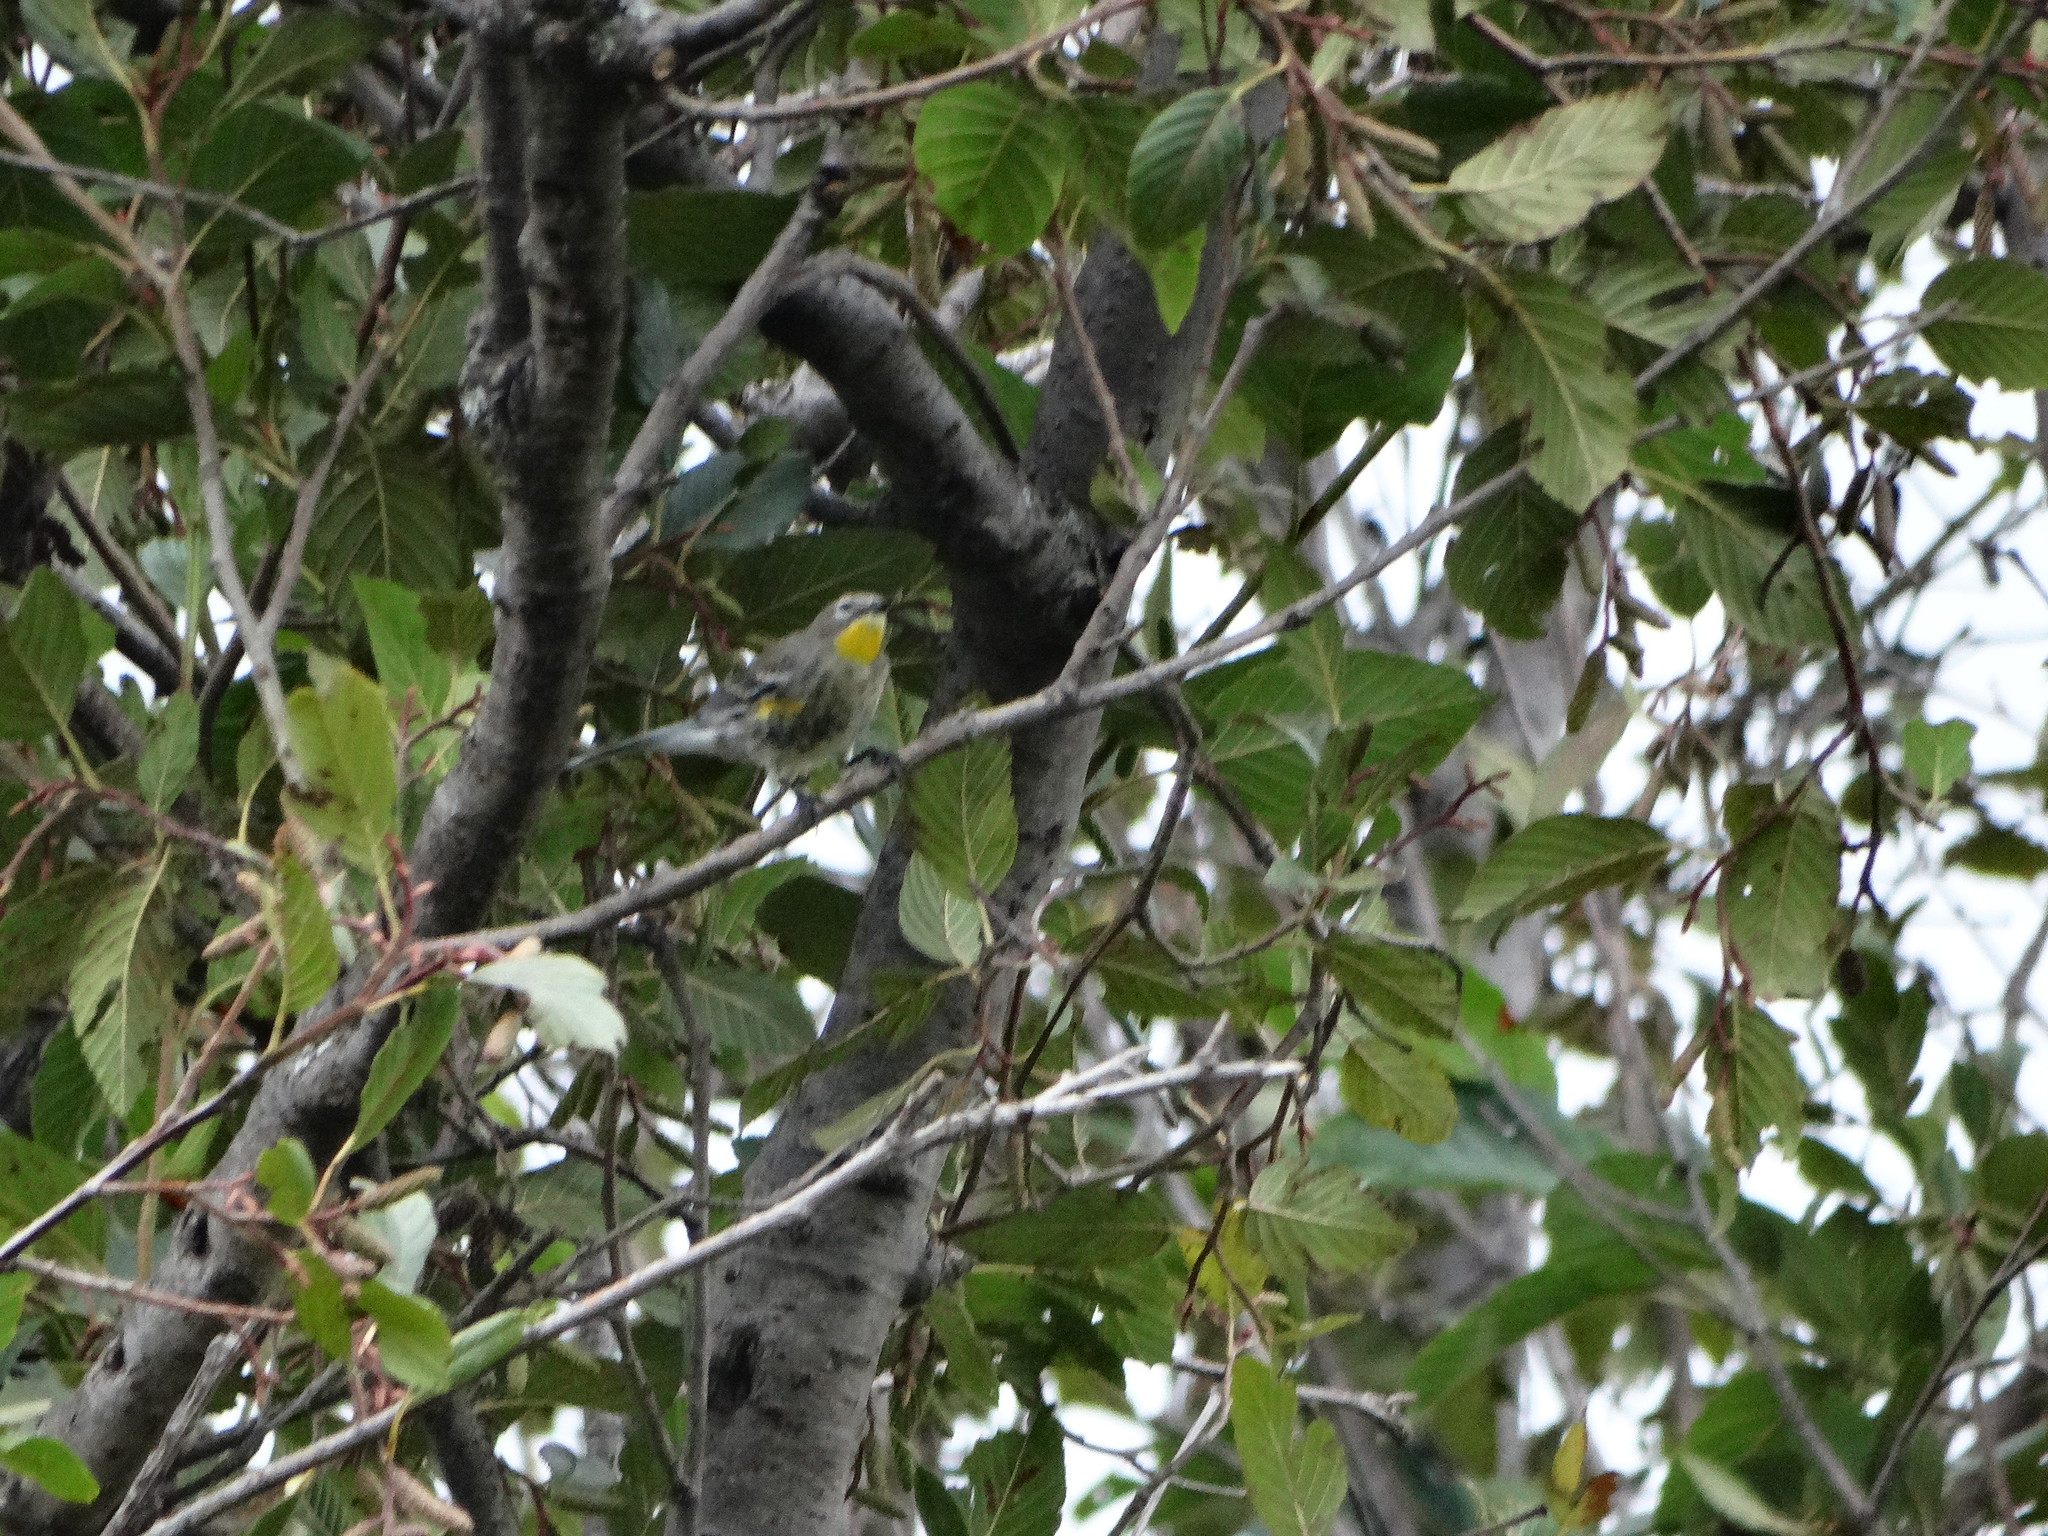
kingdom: Animalia
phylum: Chordata
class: Aves
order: Passeriformes
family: Parulidae
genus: Setophaga
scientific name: Setophaga coronata
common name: Myrtle warbler
